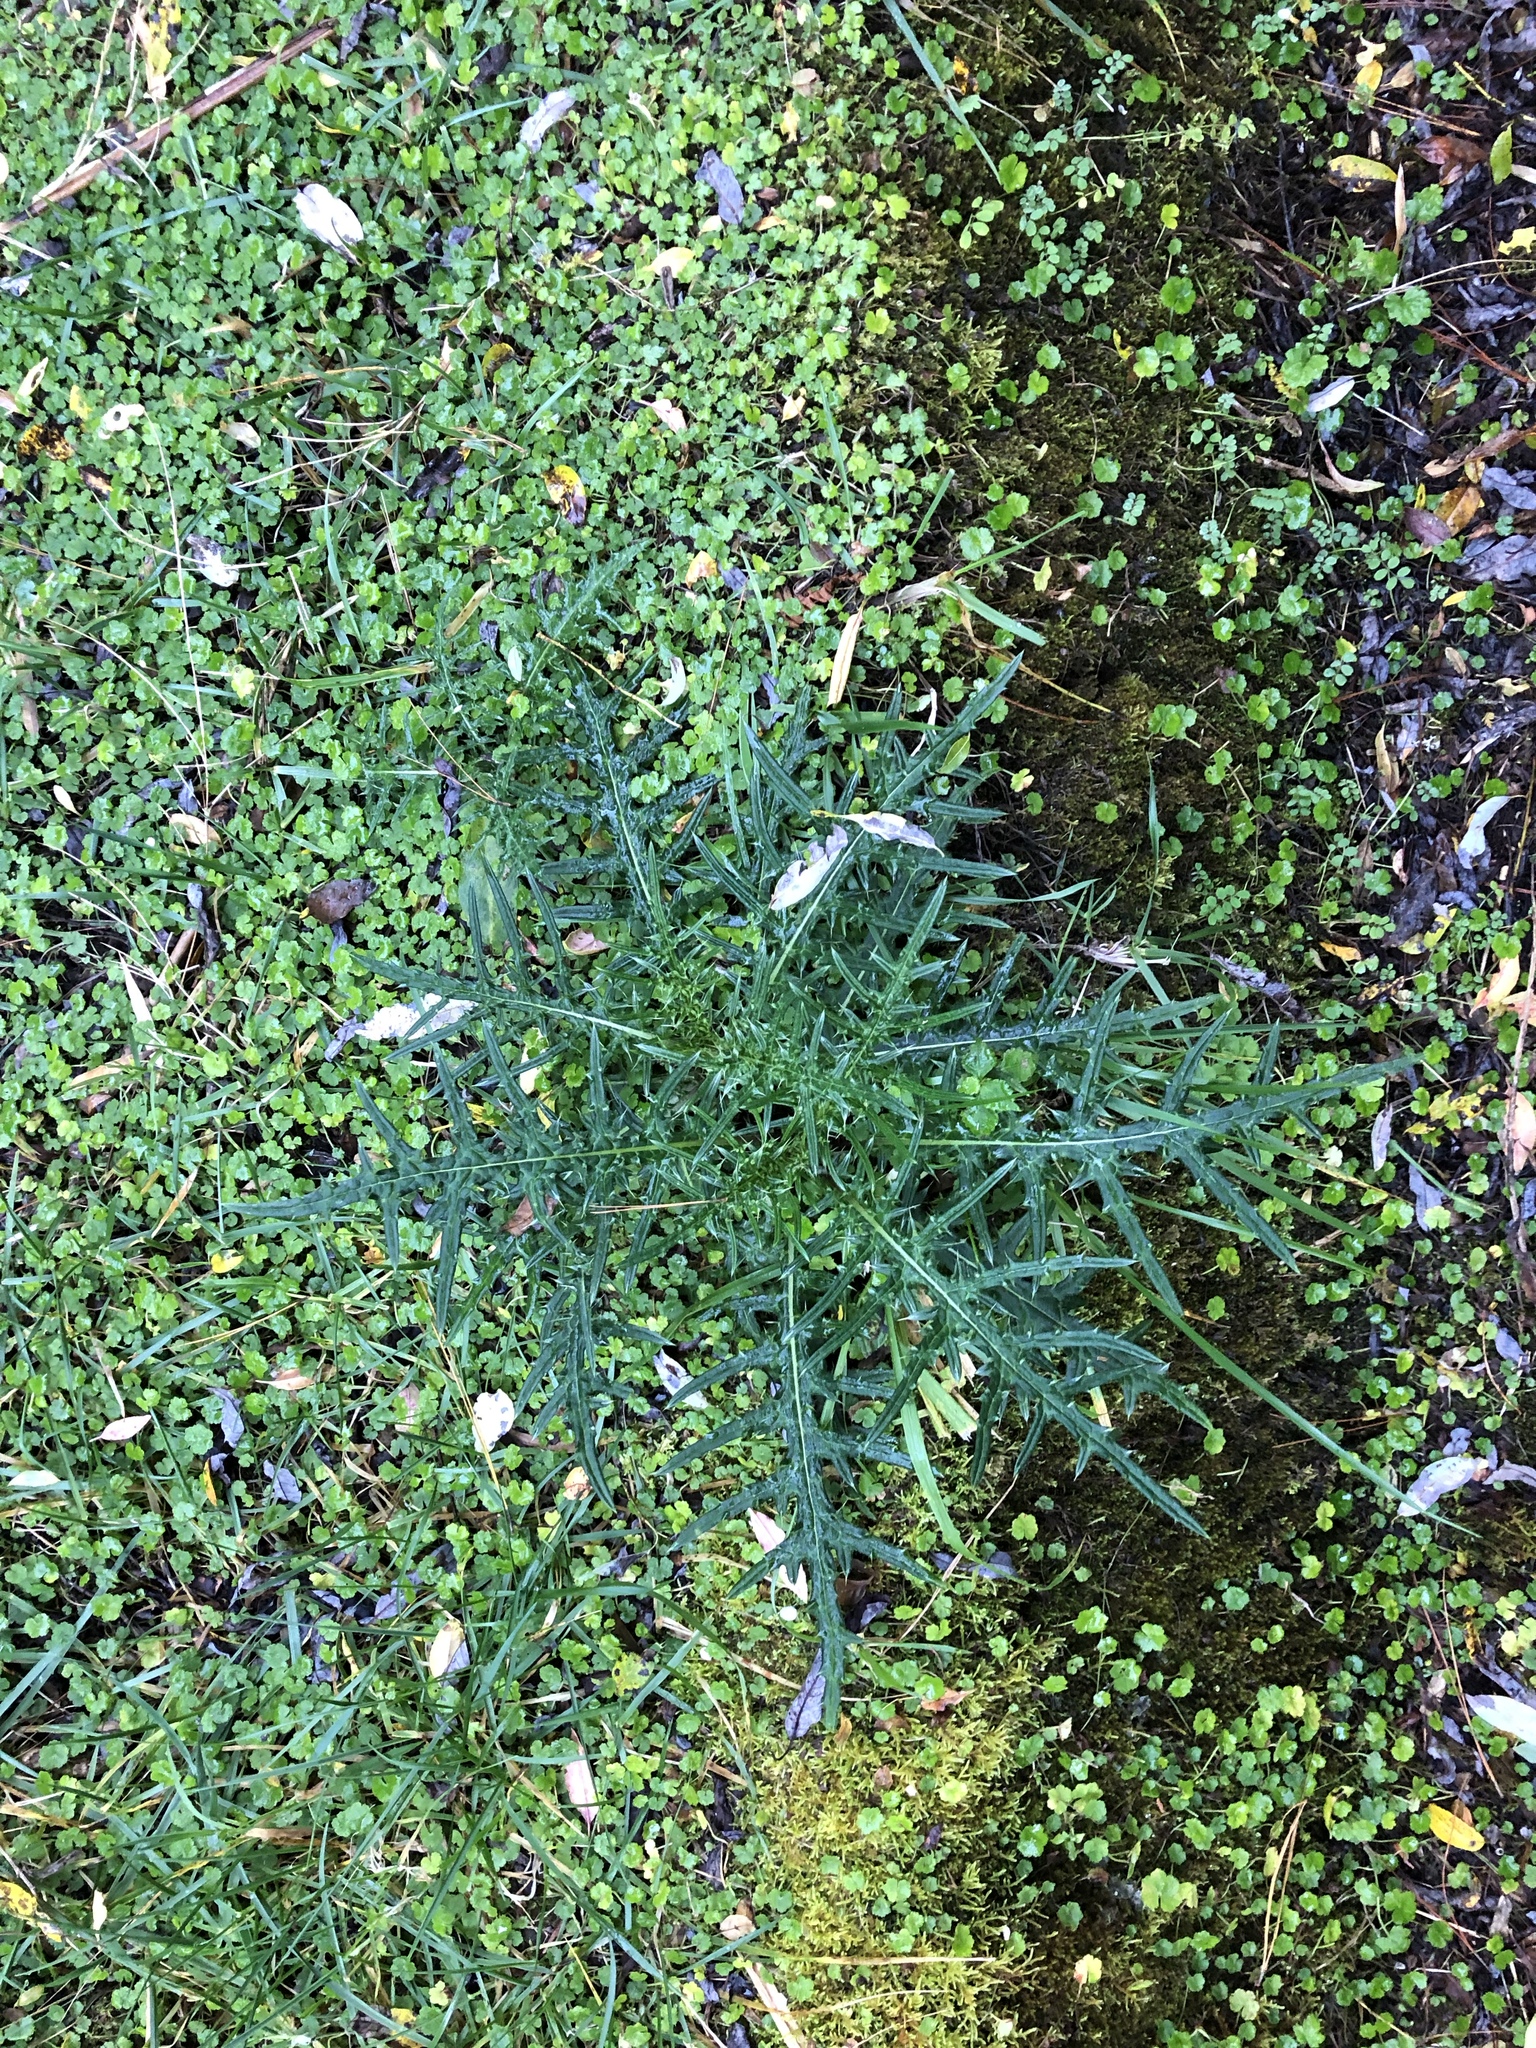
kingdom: Plantae
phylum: Tracheophyta
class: Magnoliopsida
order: Asterales
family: Asteraceae
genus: Cirsium
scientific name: Cirsium tatakaense
